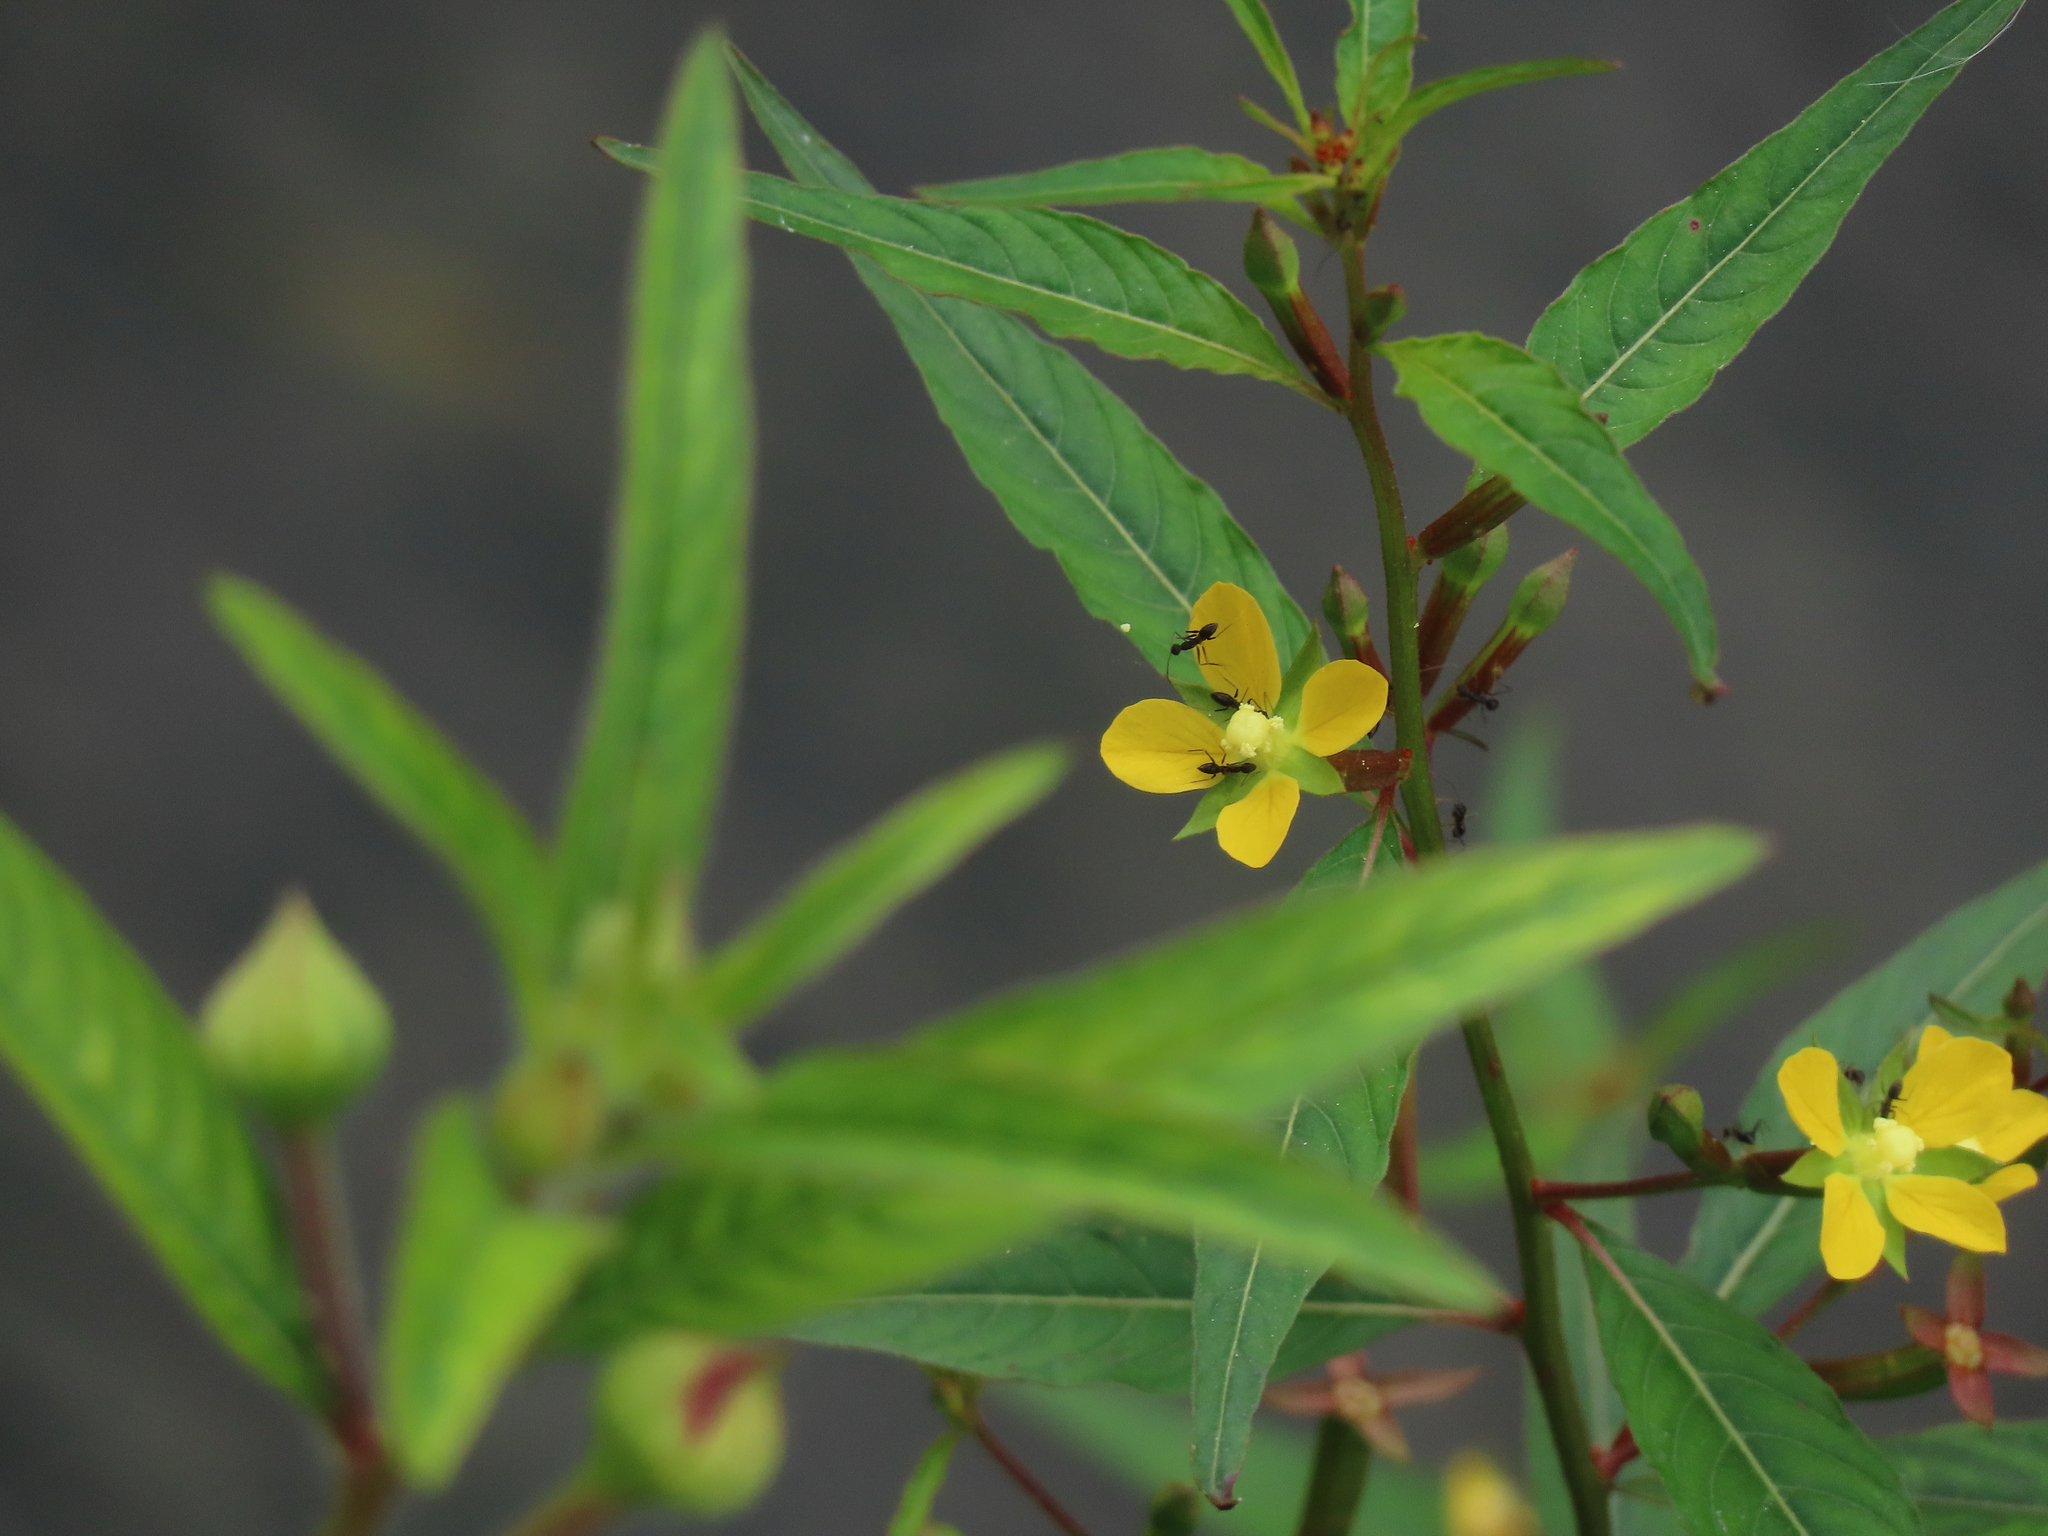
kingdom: Plantae
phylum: Tracheophyta
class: Magnoliopsida
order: Myrtales
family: Onagraceae
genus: Ludwigia
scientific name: Ludwigia erecta
